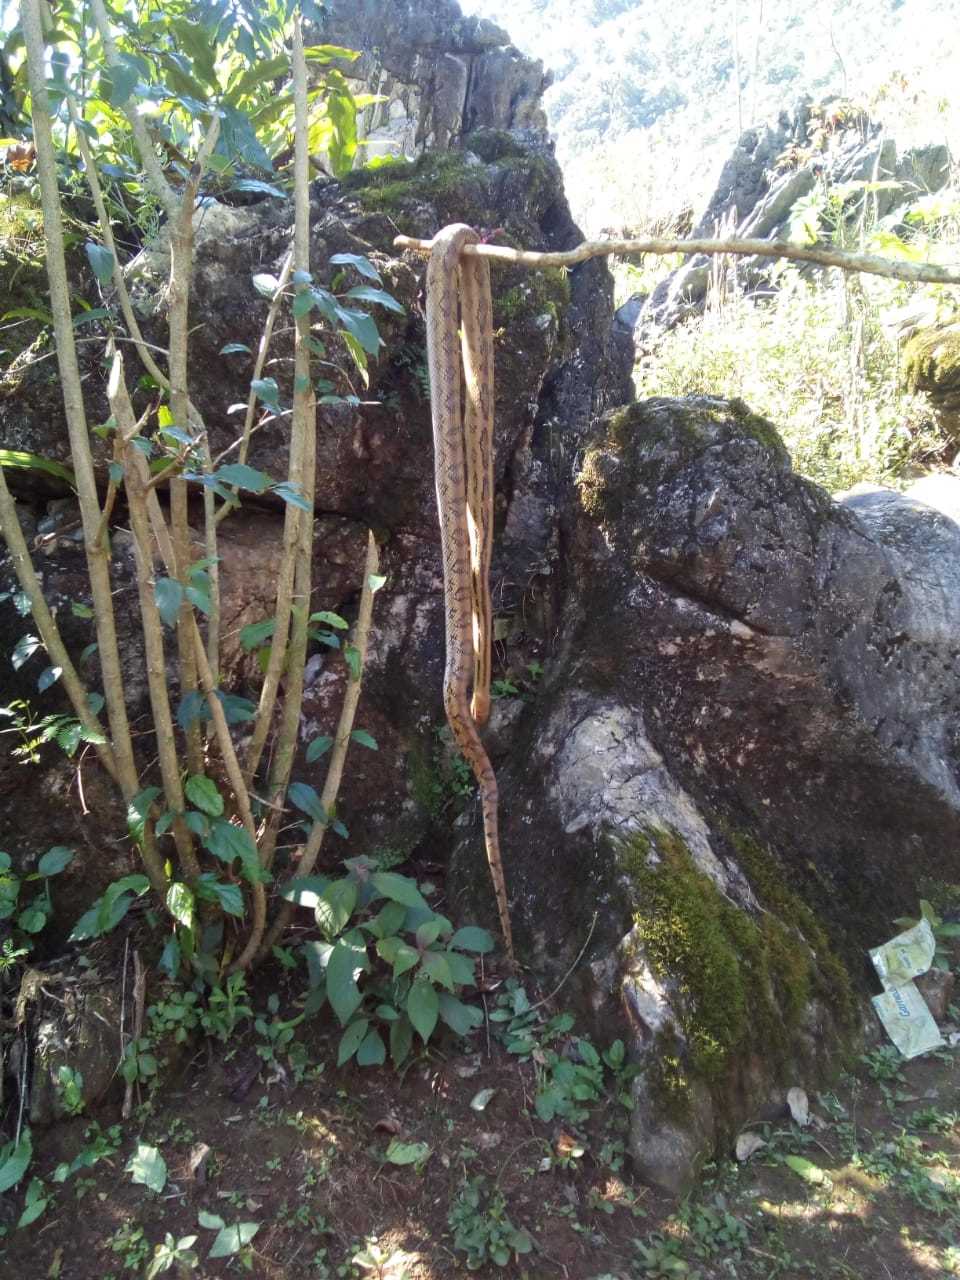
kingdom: Animalia
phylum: Chordata
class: Squamata
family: Colubridae
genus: Pituophis
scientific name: Pituophis lineaticollis
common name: Cincuate bull snake
